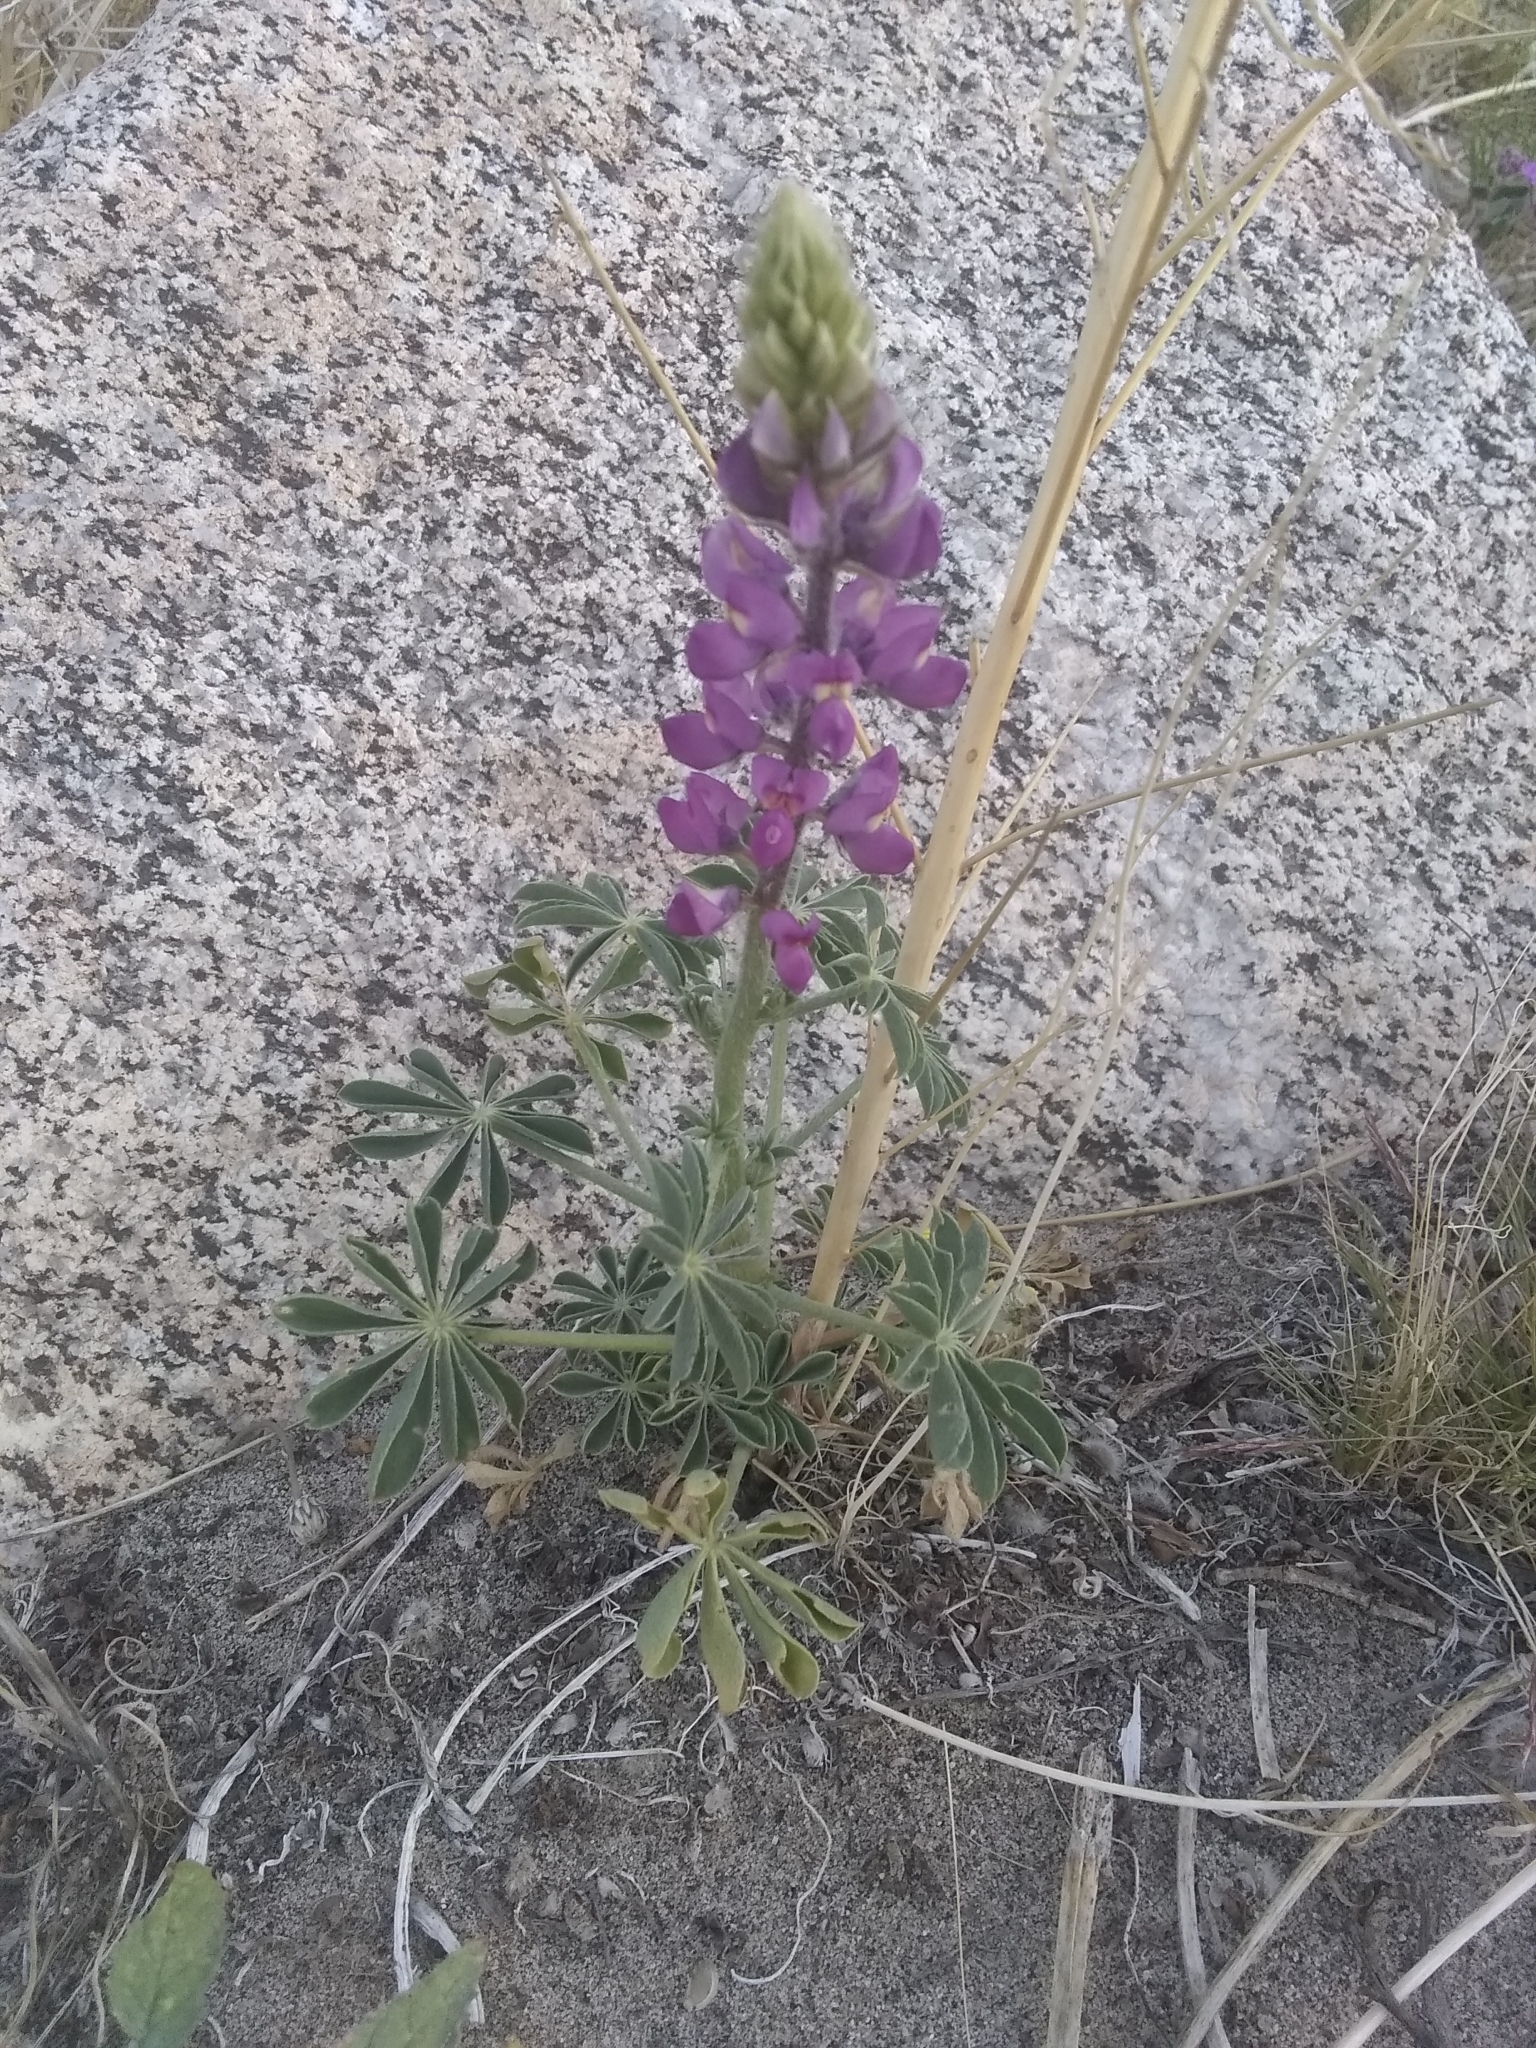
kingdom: Plantae
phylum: Tracheophyta
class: Magnoliopsida
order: Fabales
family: Fabaceae
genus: Lupinus
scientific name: Lupinus arizonicus
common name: Arizona lupine
